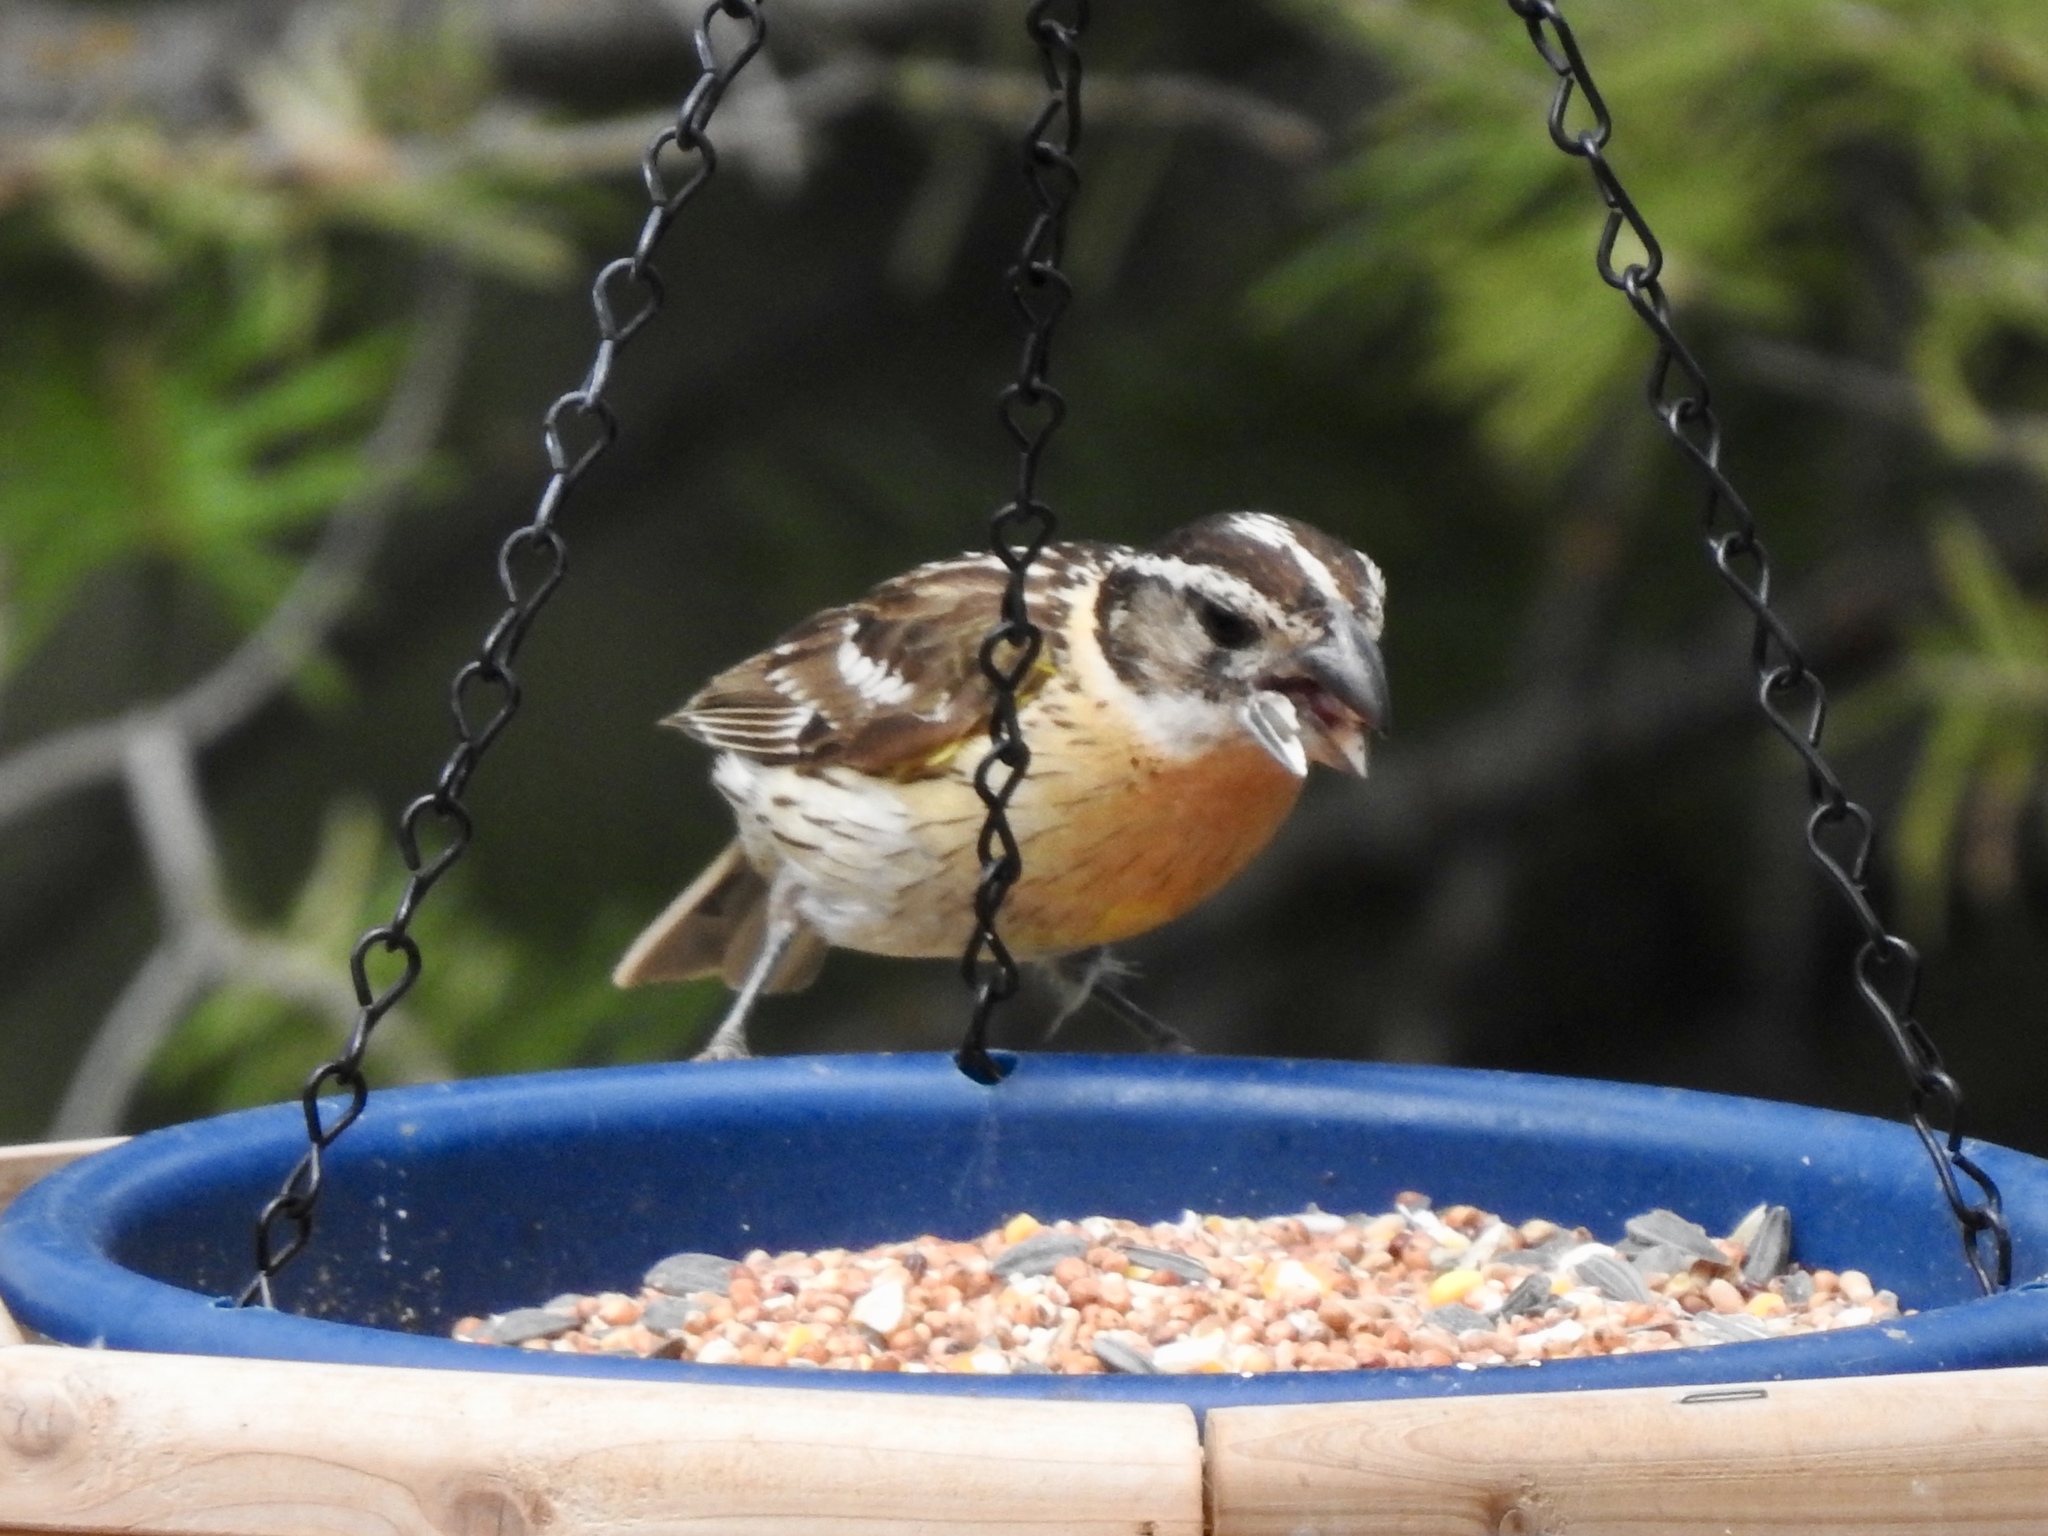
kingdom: Animalia
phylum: Chordata
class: Aves
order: Passeriformes
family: Cardinalidae
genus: Pheucticus
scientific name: Pheucticus melanocephalus
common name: Black-headed grosbeak
